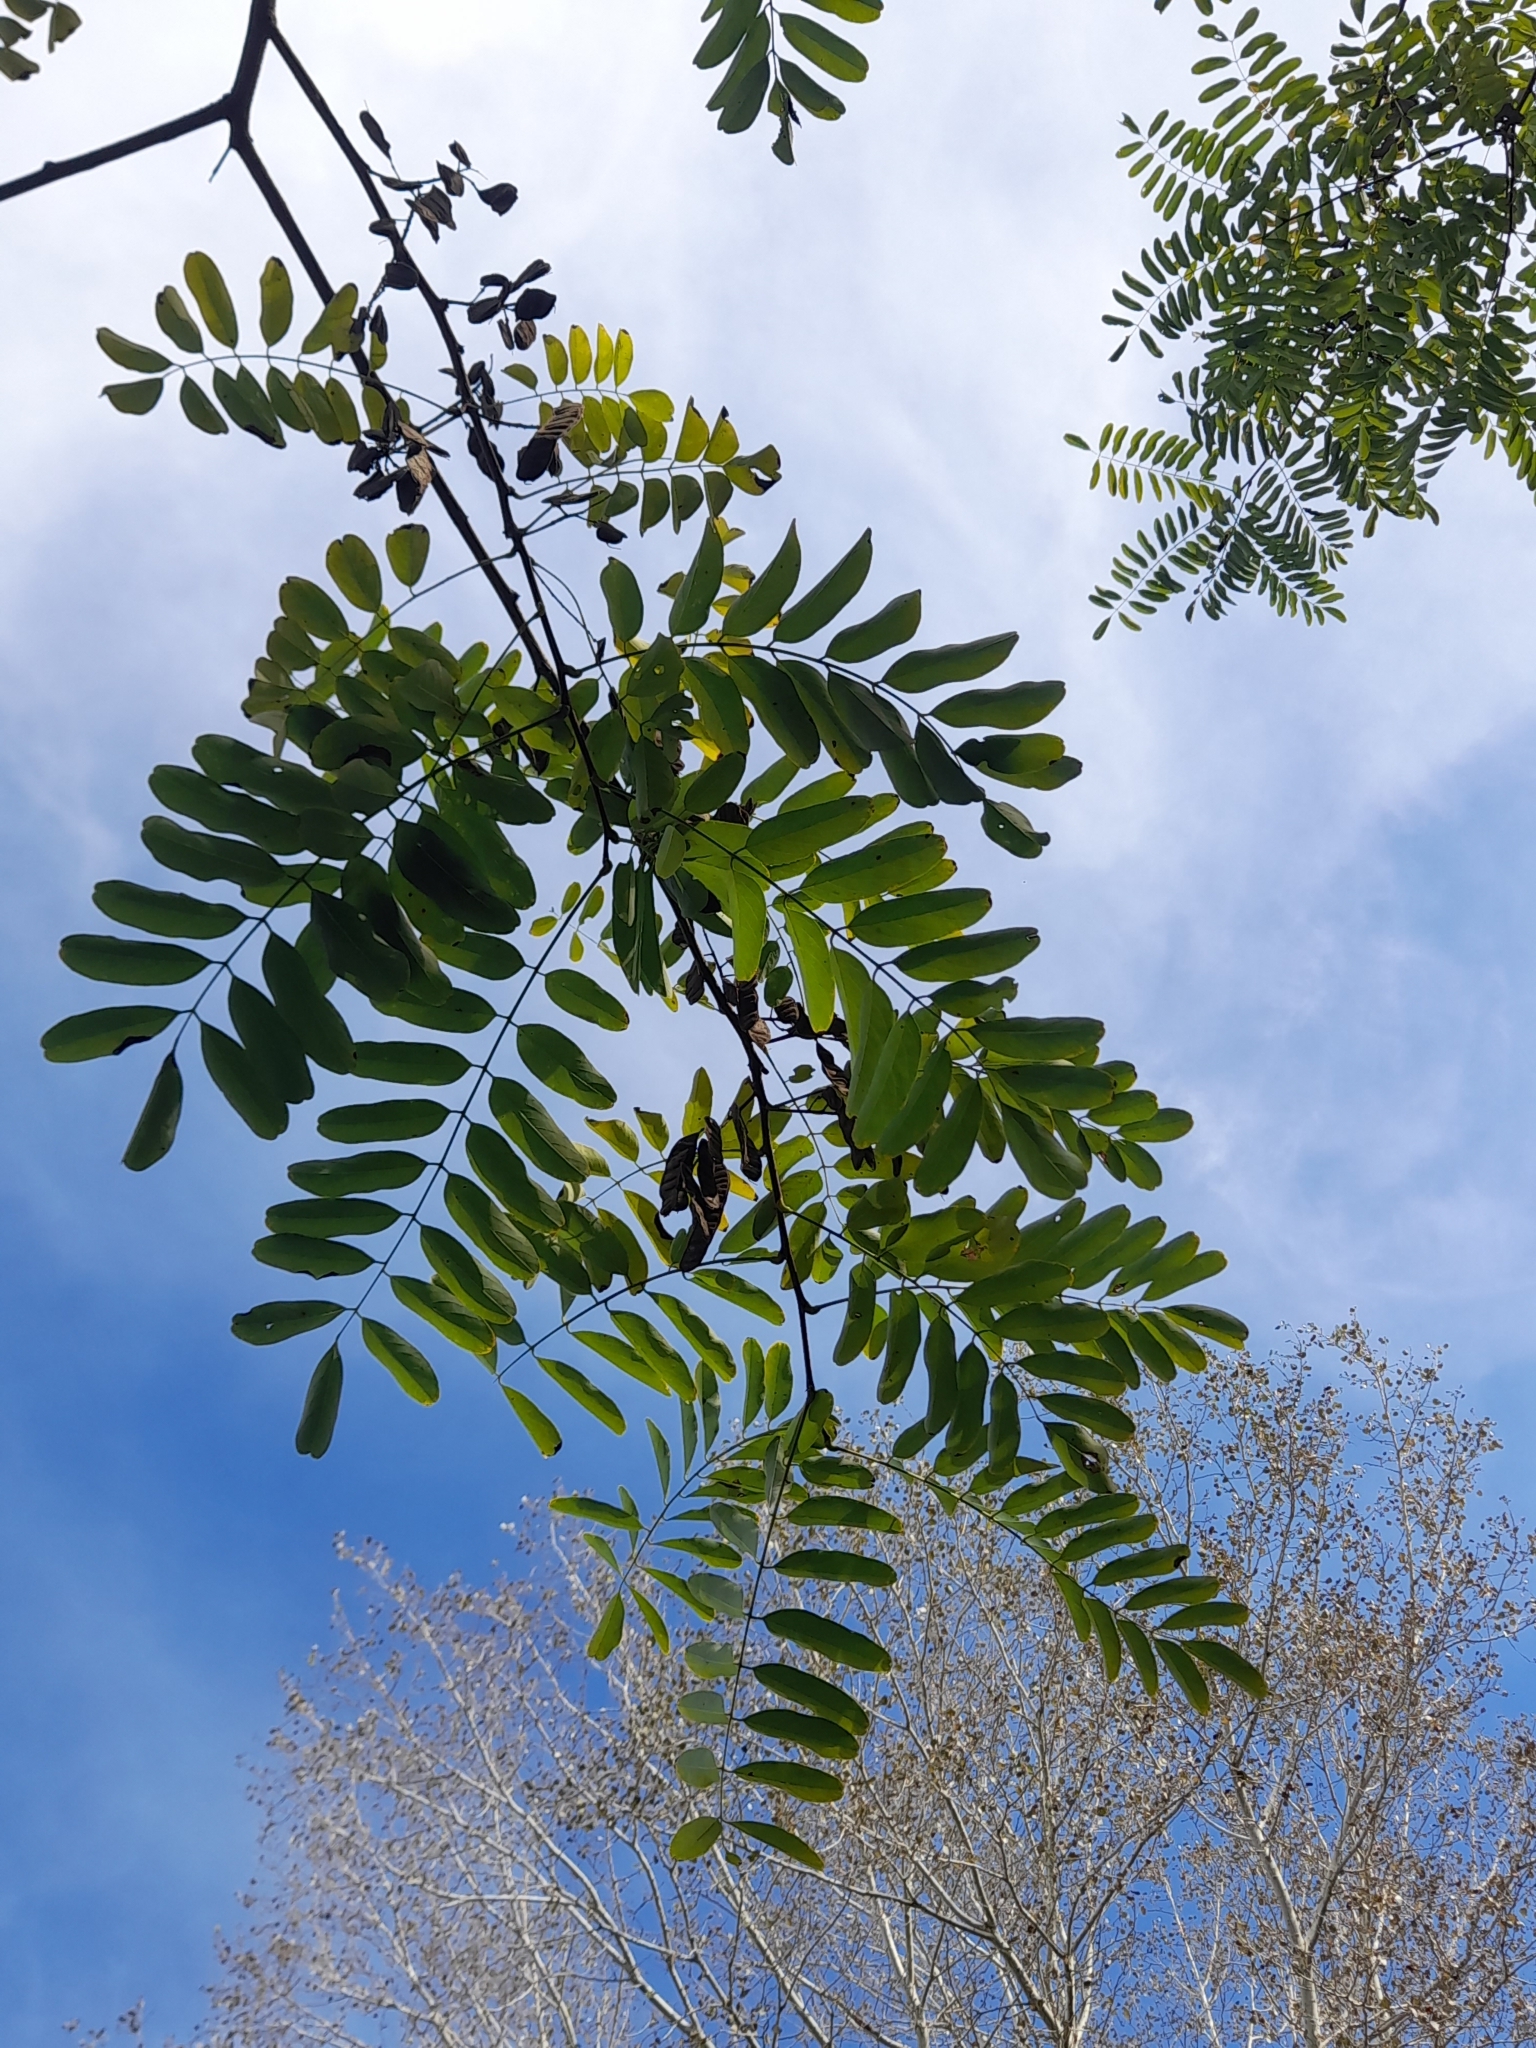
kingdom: Plantae
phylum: Tracheophyta
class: Magnoliopsida
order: Fabales
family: Fabaceae
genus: Robinia
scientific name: Robinia pseudoacacia
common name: Black locust
